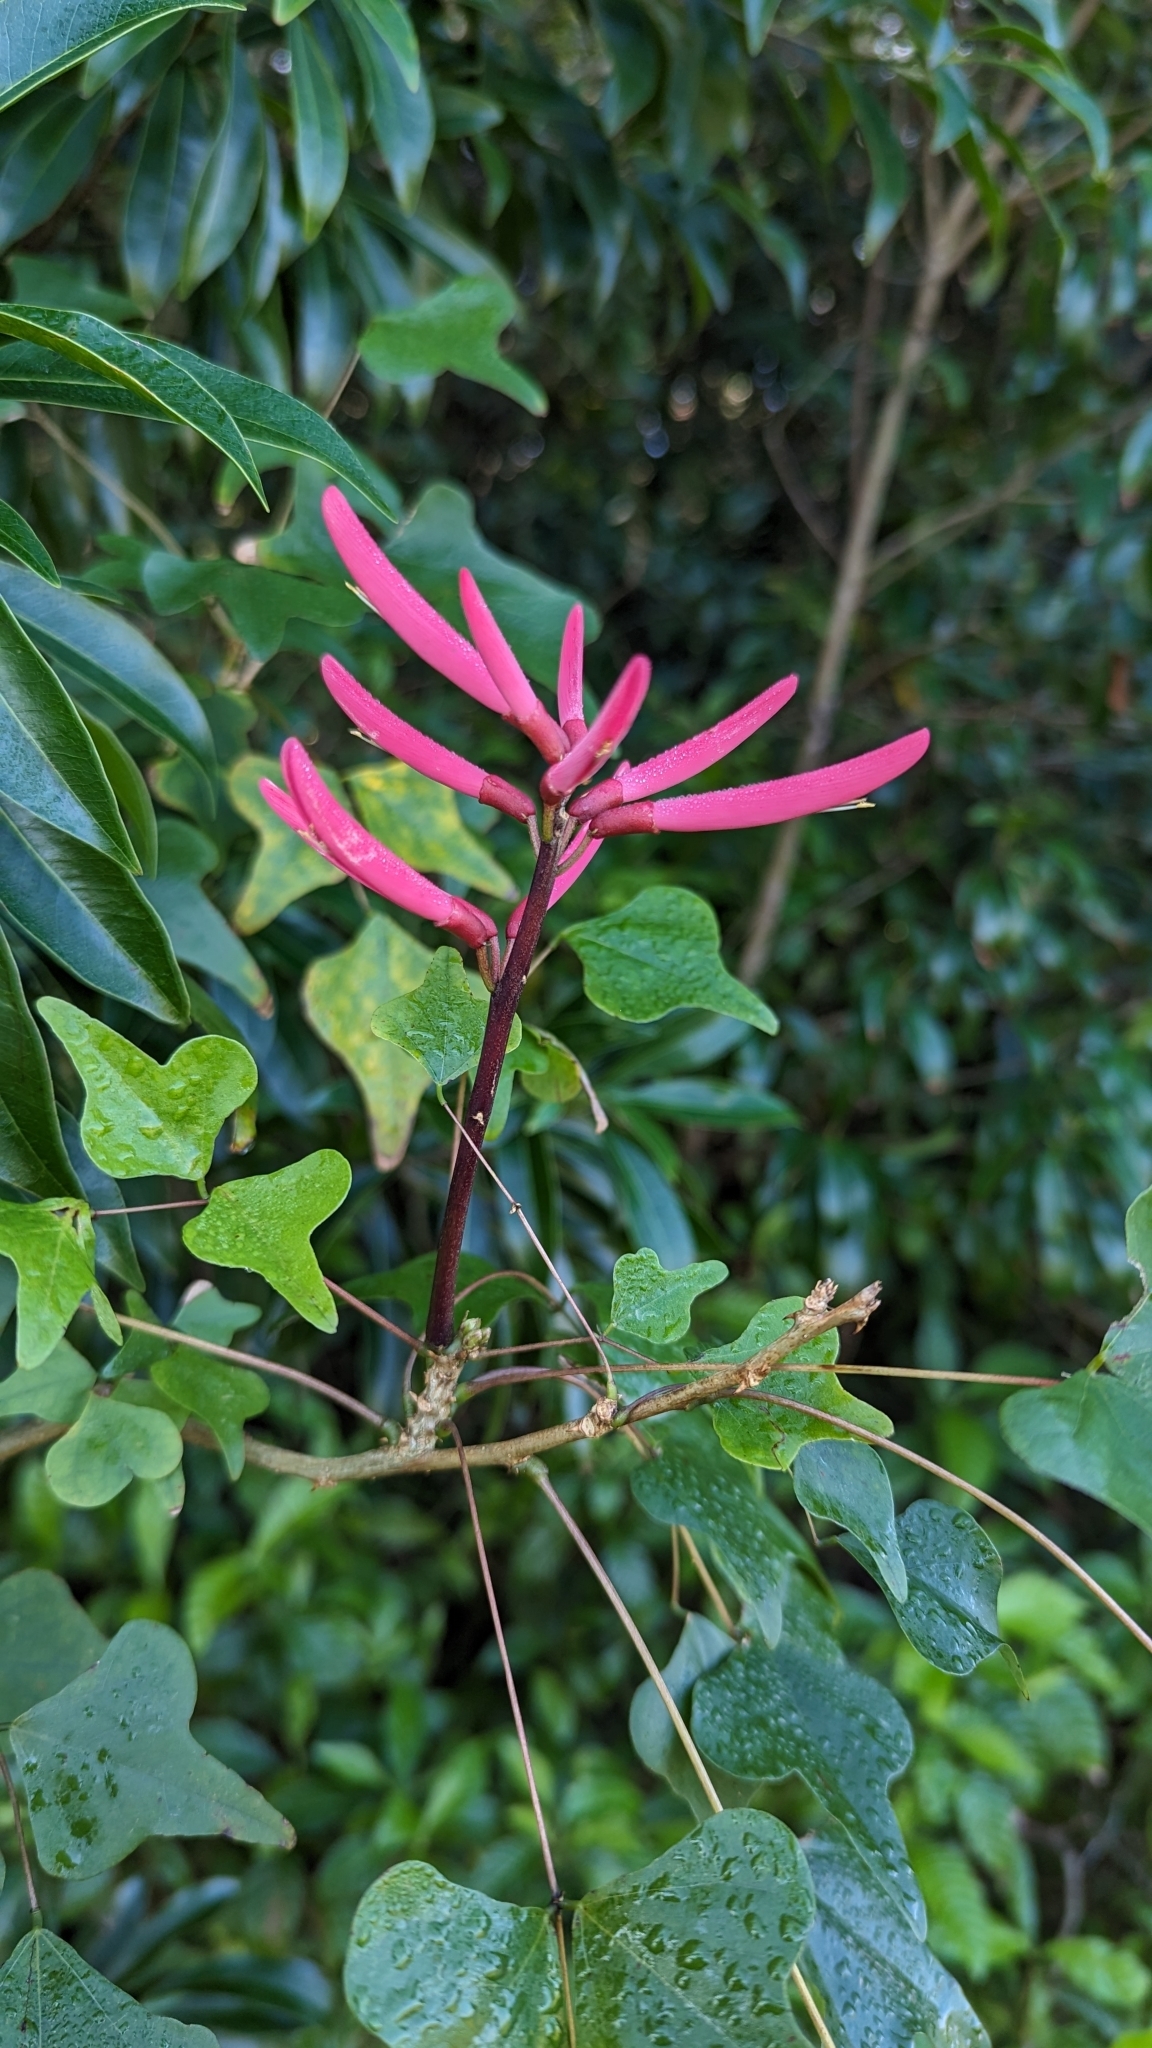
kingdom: Plantae
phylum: Tracheophyta
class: Magnoliopsida
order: Fabales
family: Fabaceae
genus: Erythrina
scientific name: Erythrina herbacea
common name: Coral-bean
